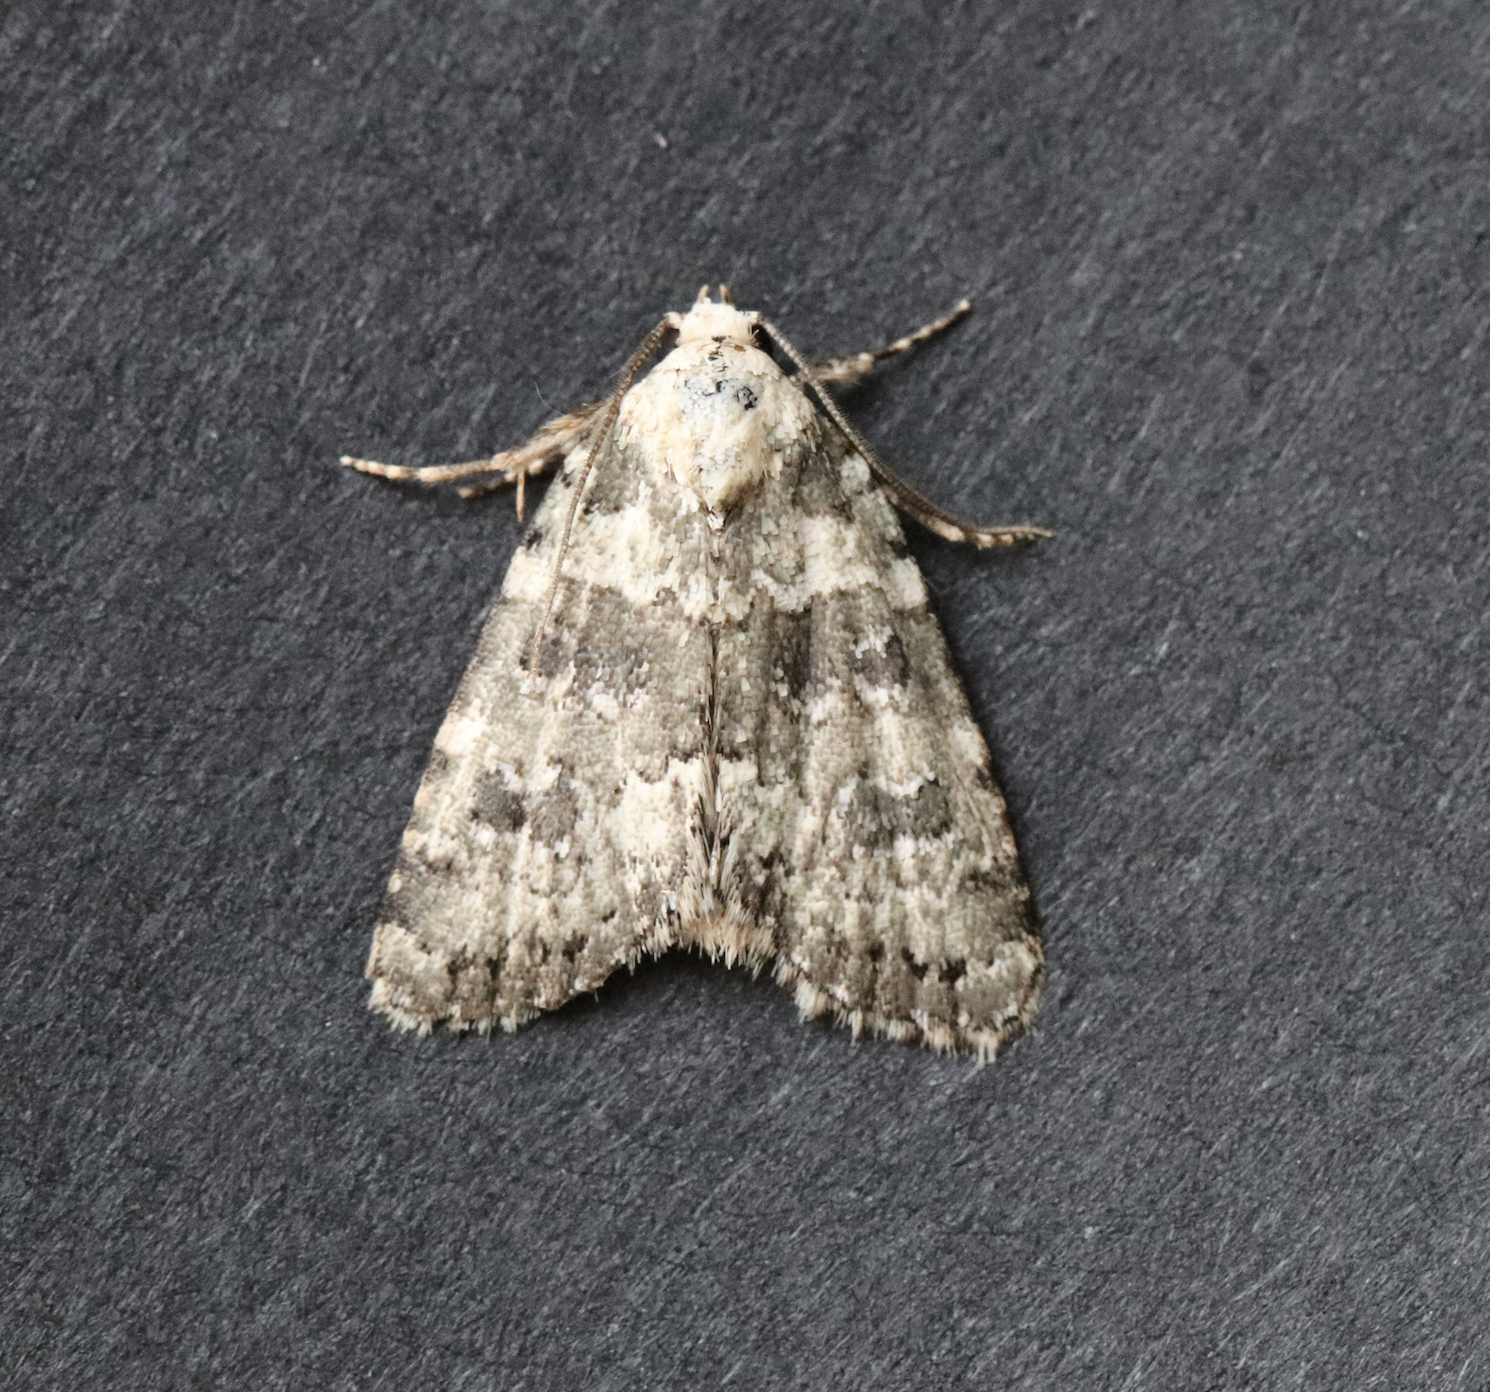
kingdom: Animalia
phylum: Arthropoda
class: Insecta
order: Lepidoptera
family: Noctuidae
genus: Bryophila
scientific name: Bryophila domestica
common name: Marbled beauty
